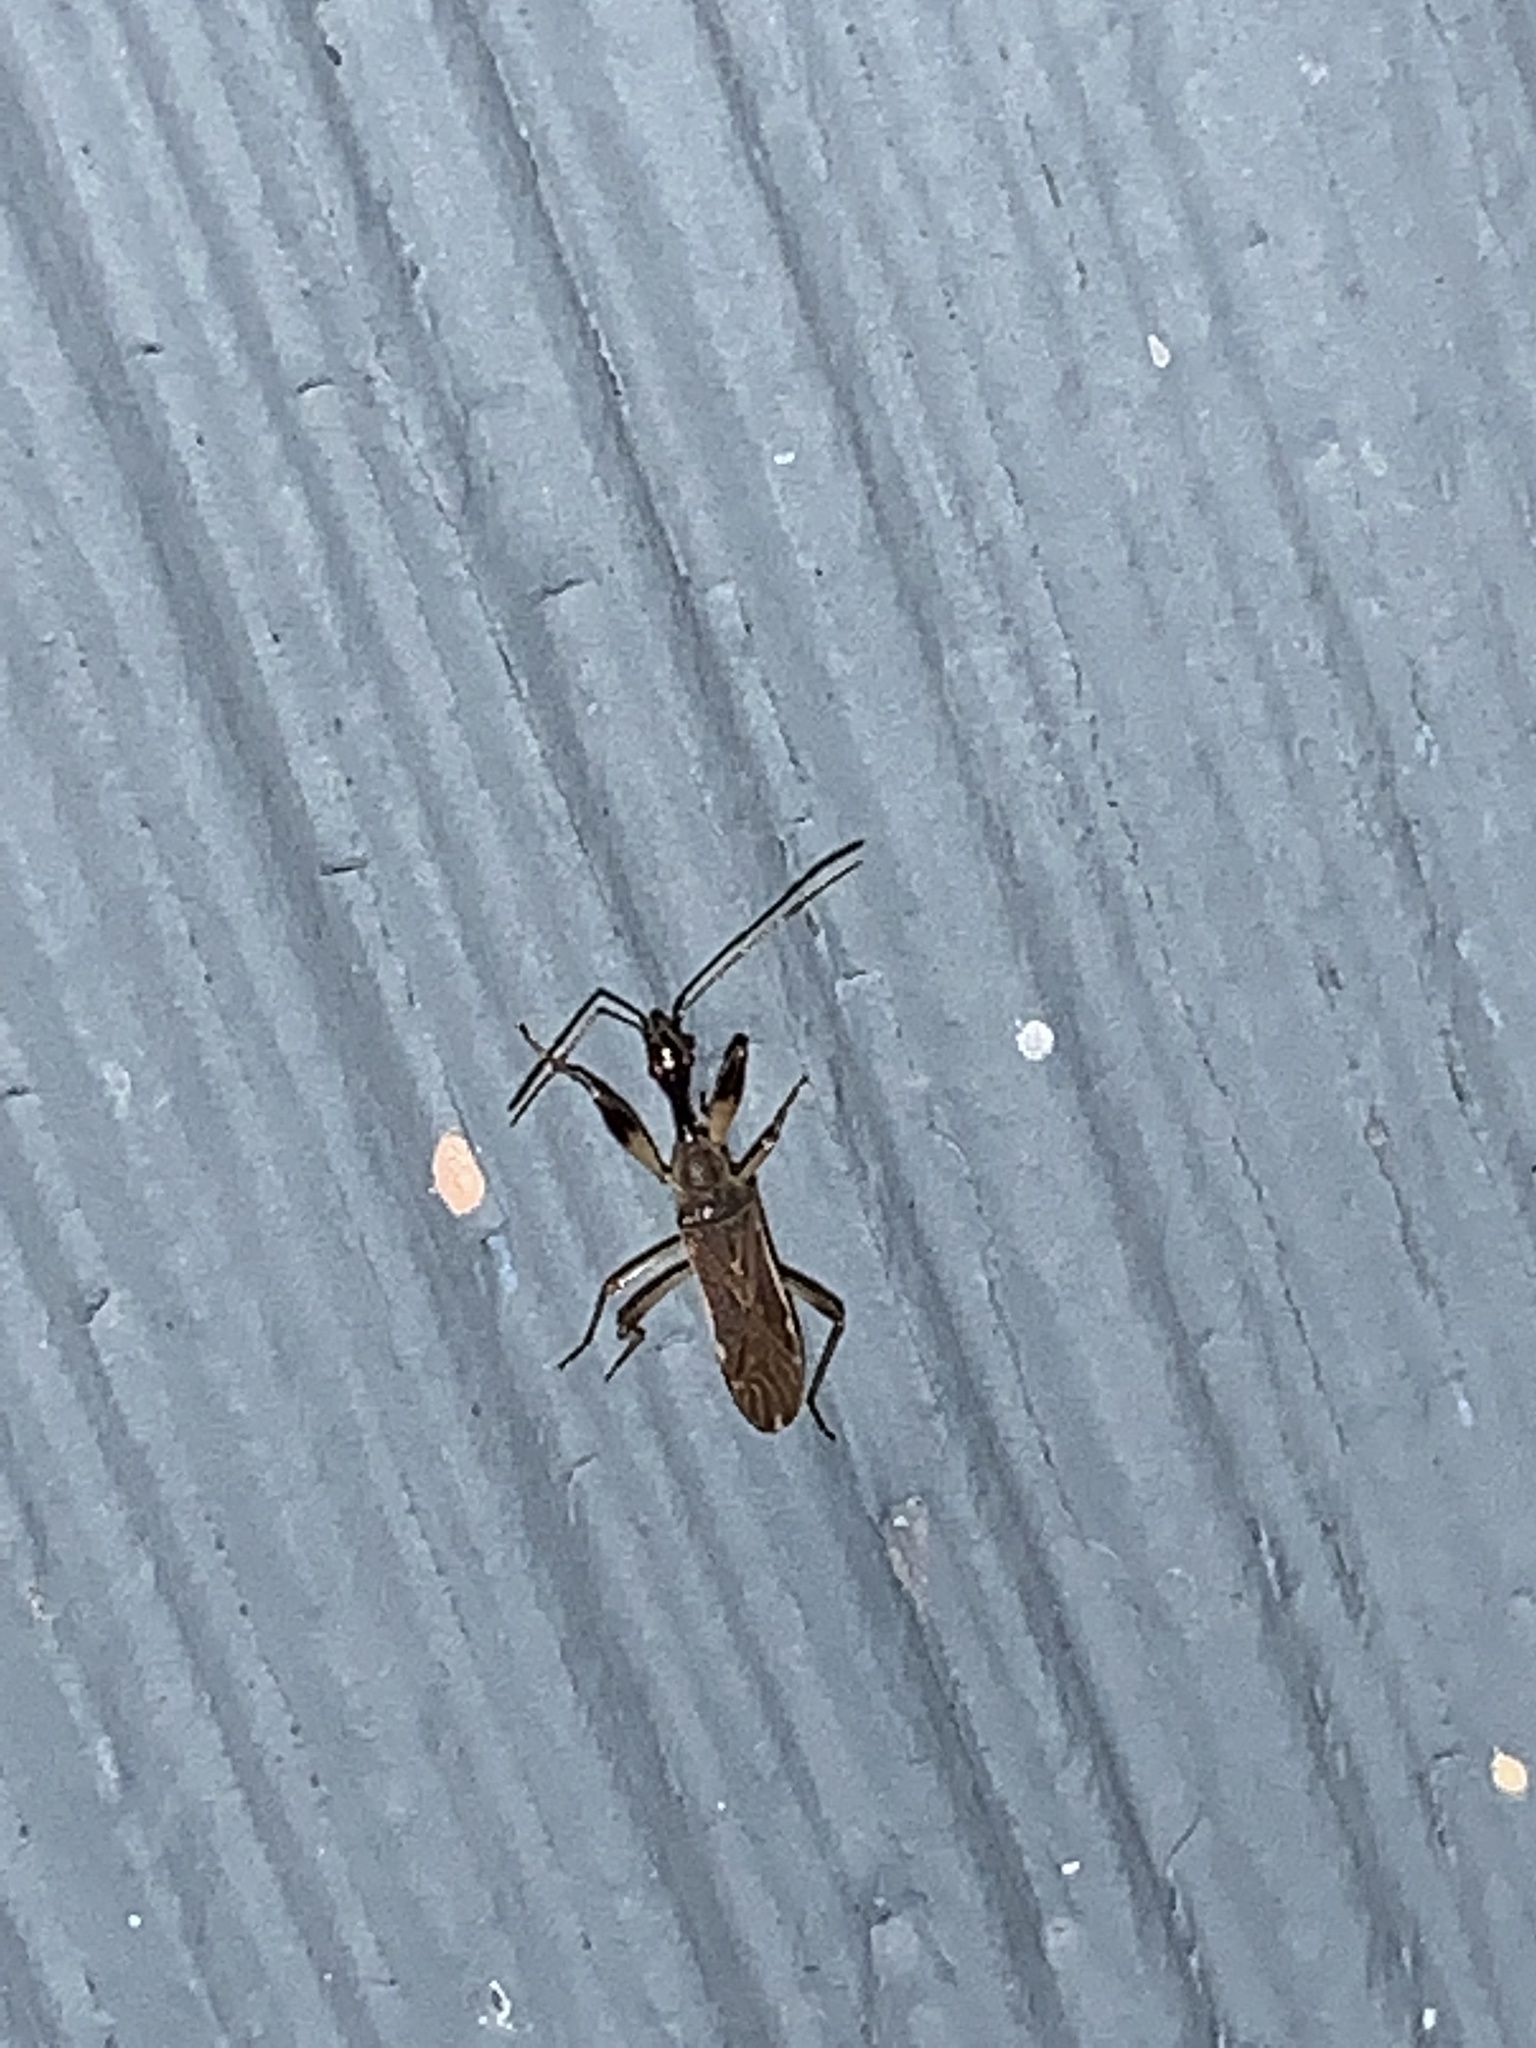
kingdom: Animalia
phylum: Arthropoda
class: Insecta
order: Hemiptera
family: Rhyparochromidae
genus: Myodocha
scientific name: Myodocha serripes
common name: Long-necked seed bug
